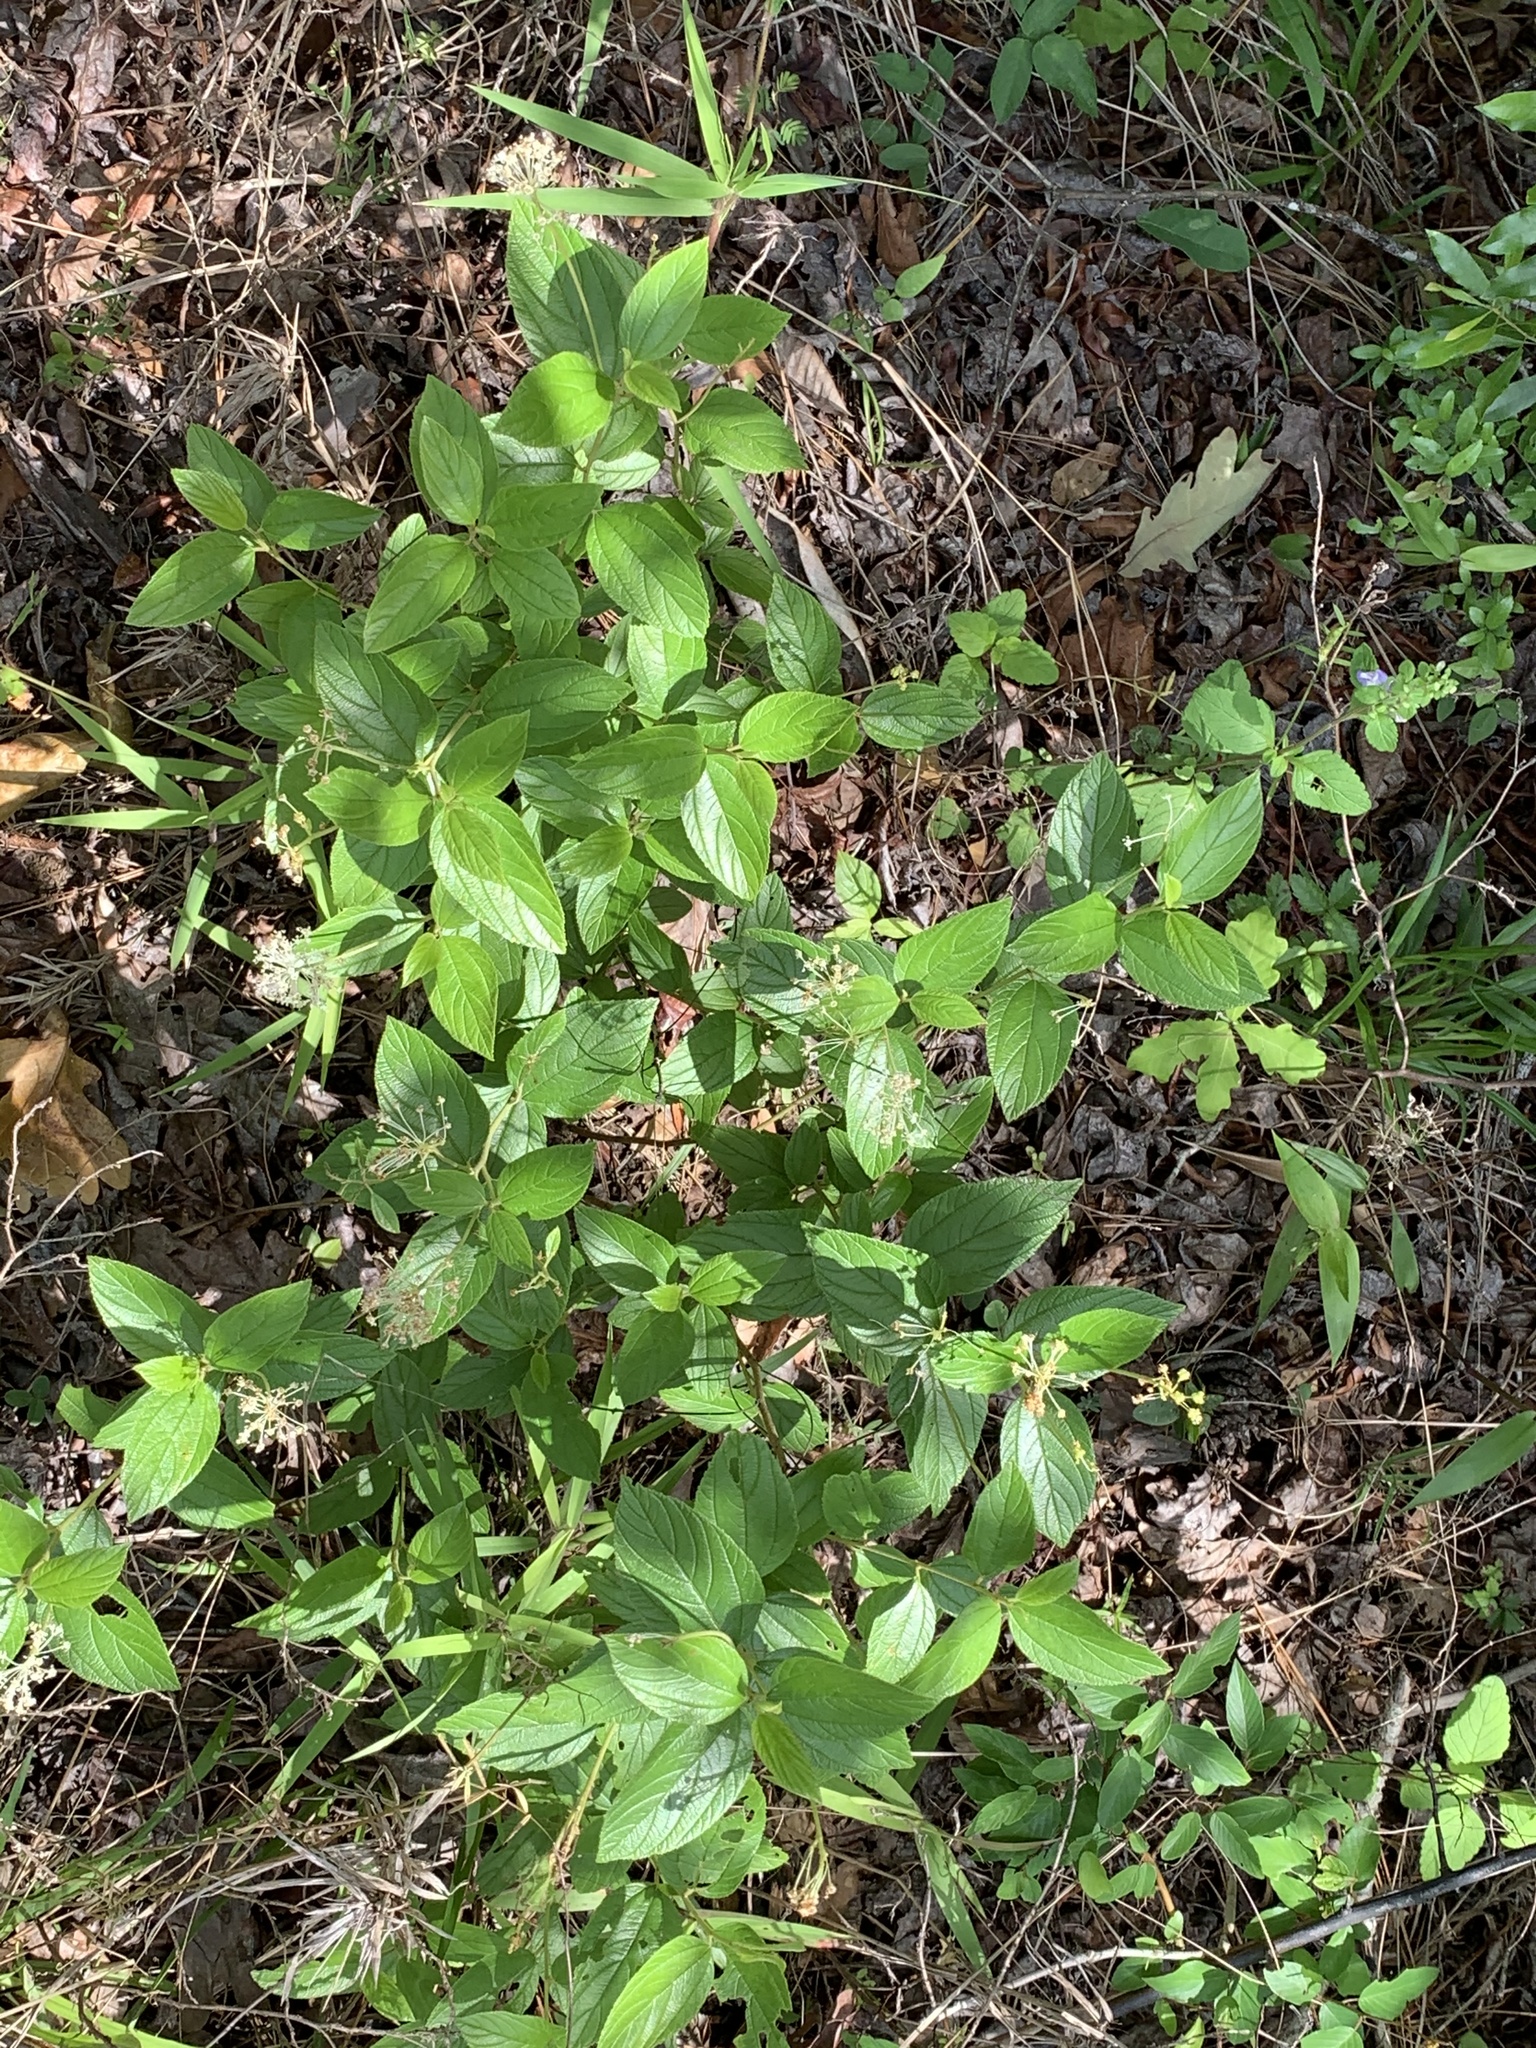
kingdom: Plantae
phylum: Tracheophyta
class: Magnoliopsida
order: Rosales
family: Rhamnaceae
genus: Ceanothus
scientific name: Ceanothus americanus
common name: Redroot
